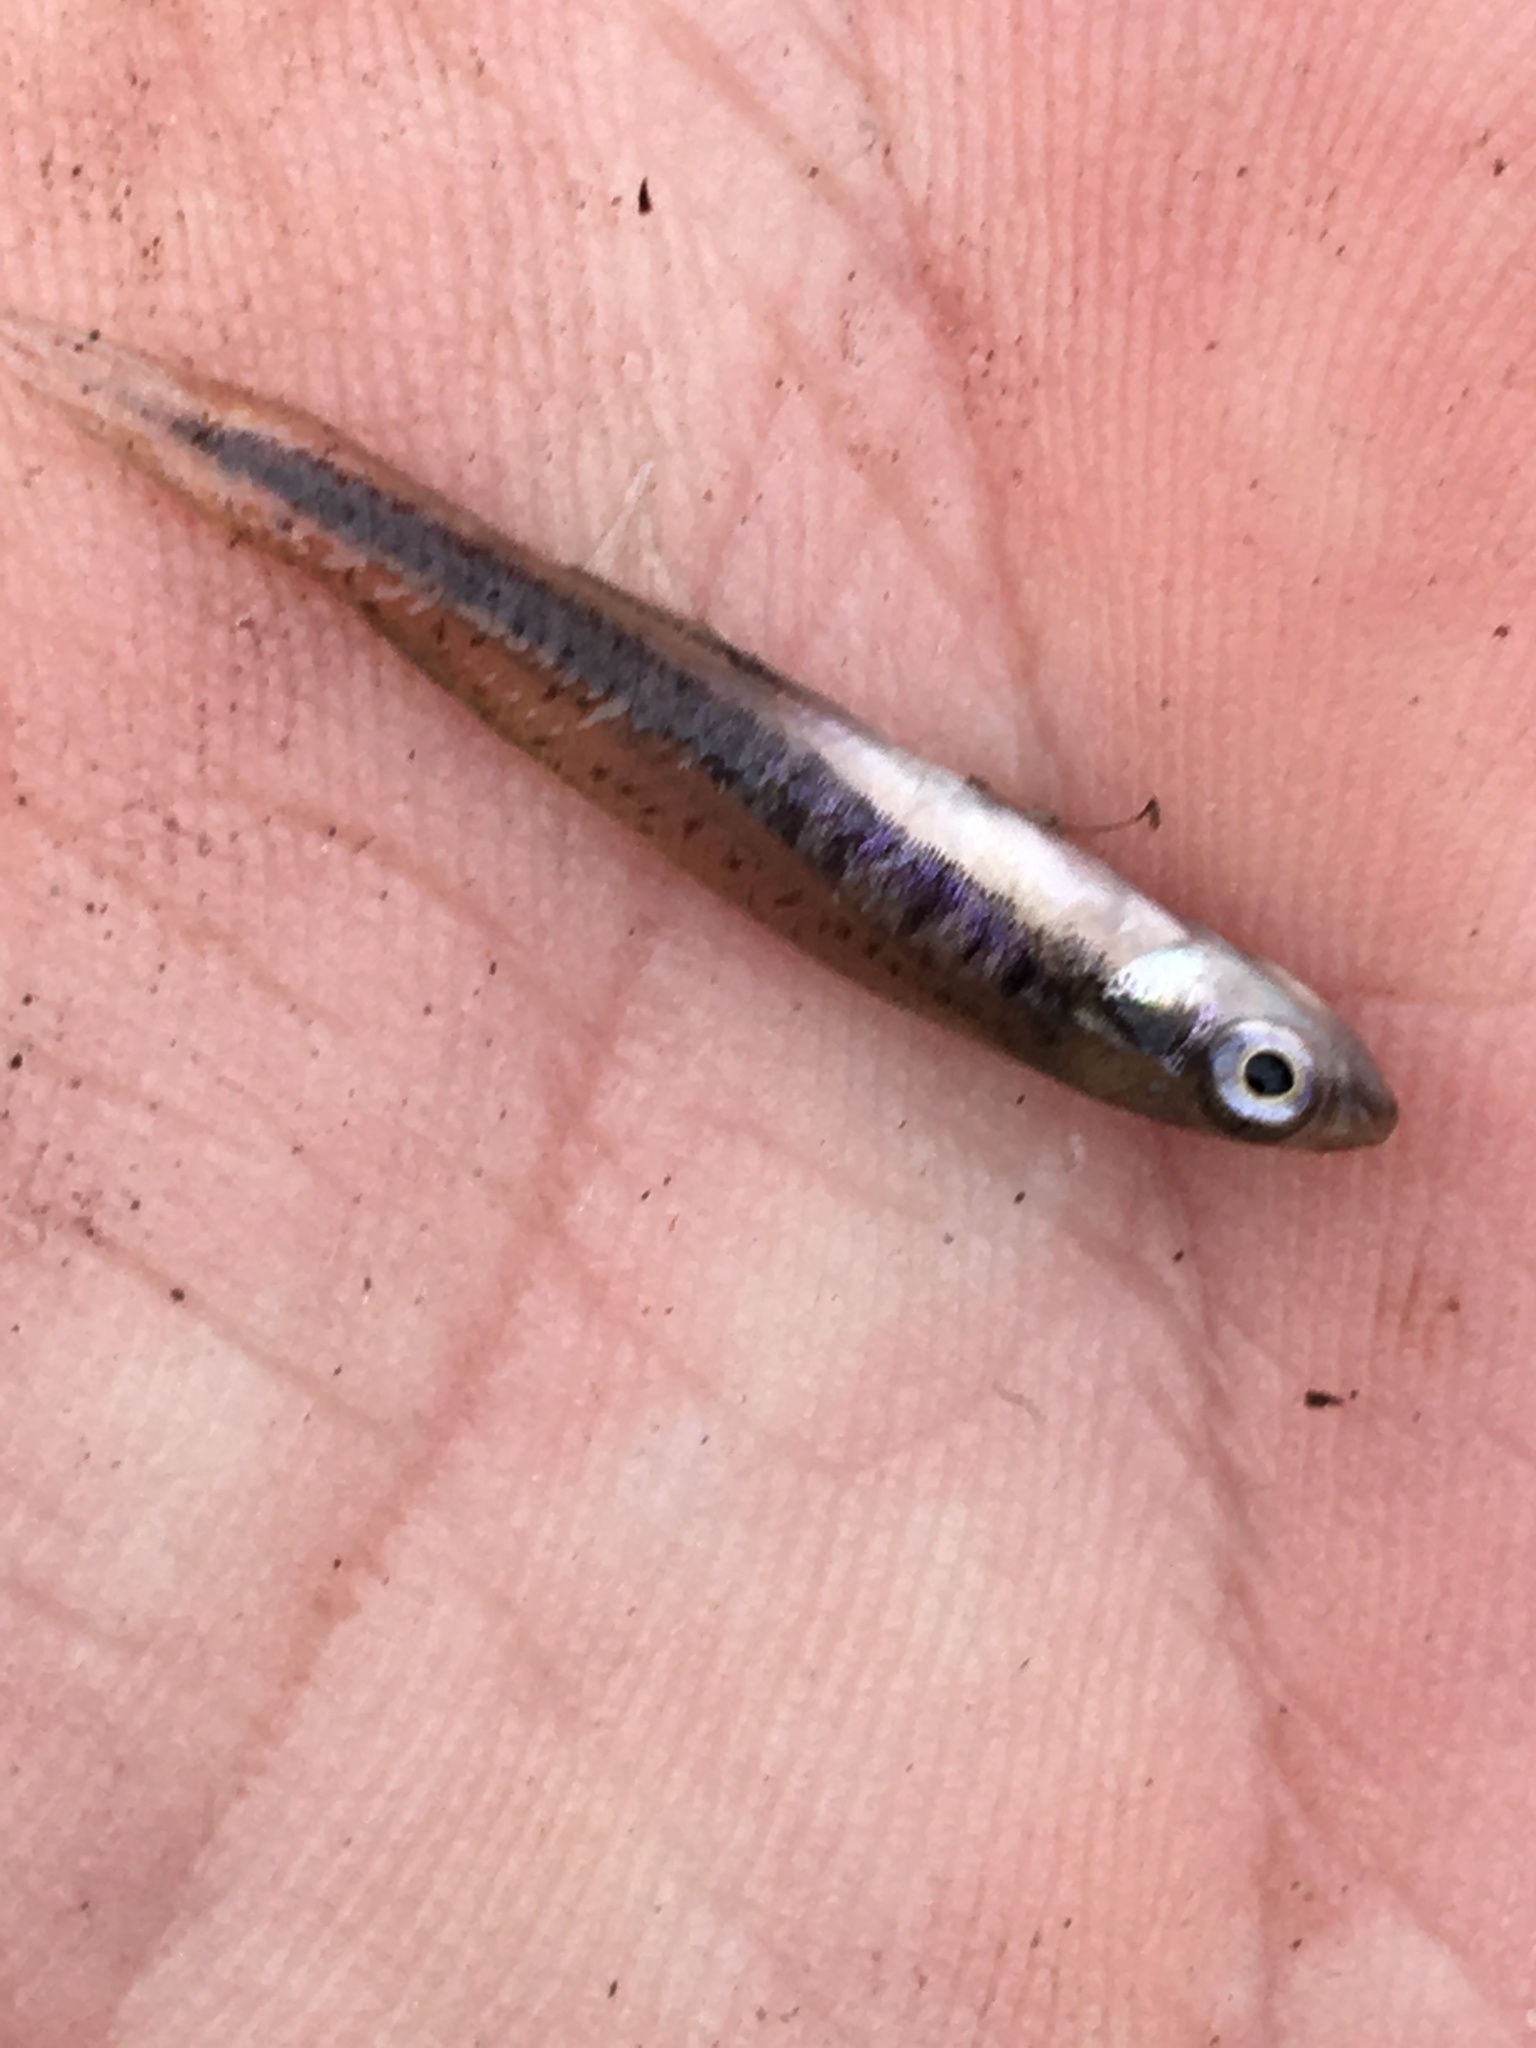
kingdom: Animalia
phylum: Chordata
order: Cyprinodontiformes
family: Fundulidae
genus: Fundulus
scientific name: Fundulus olivaceus
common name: Blackspotted topminnow
